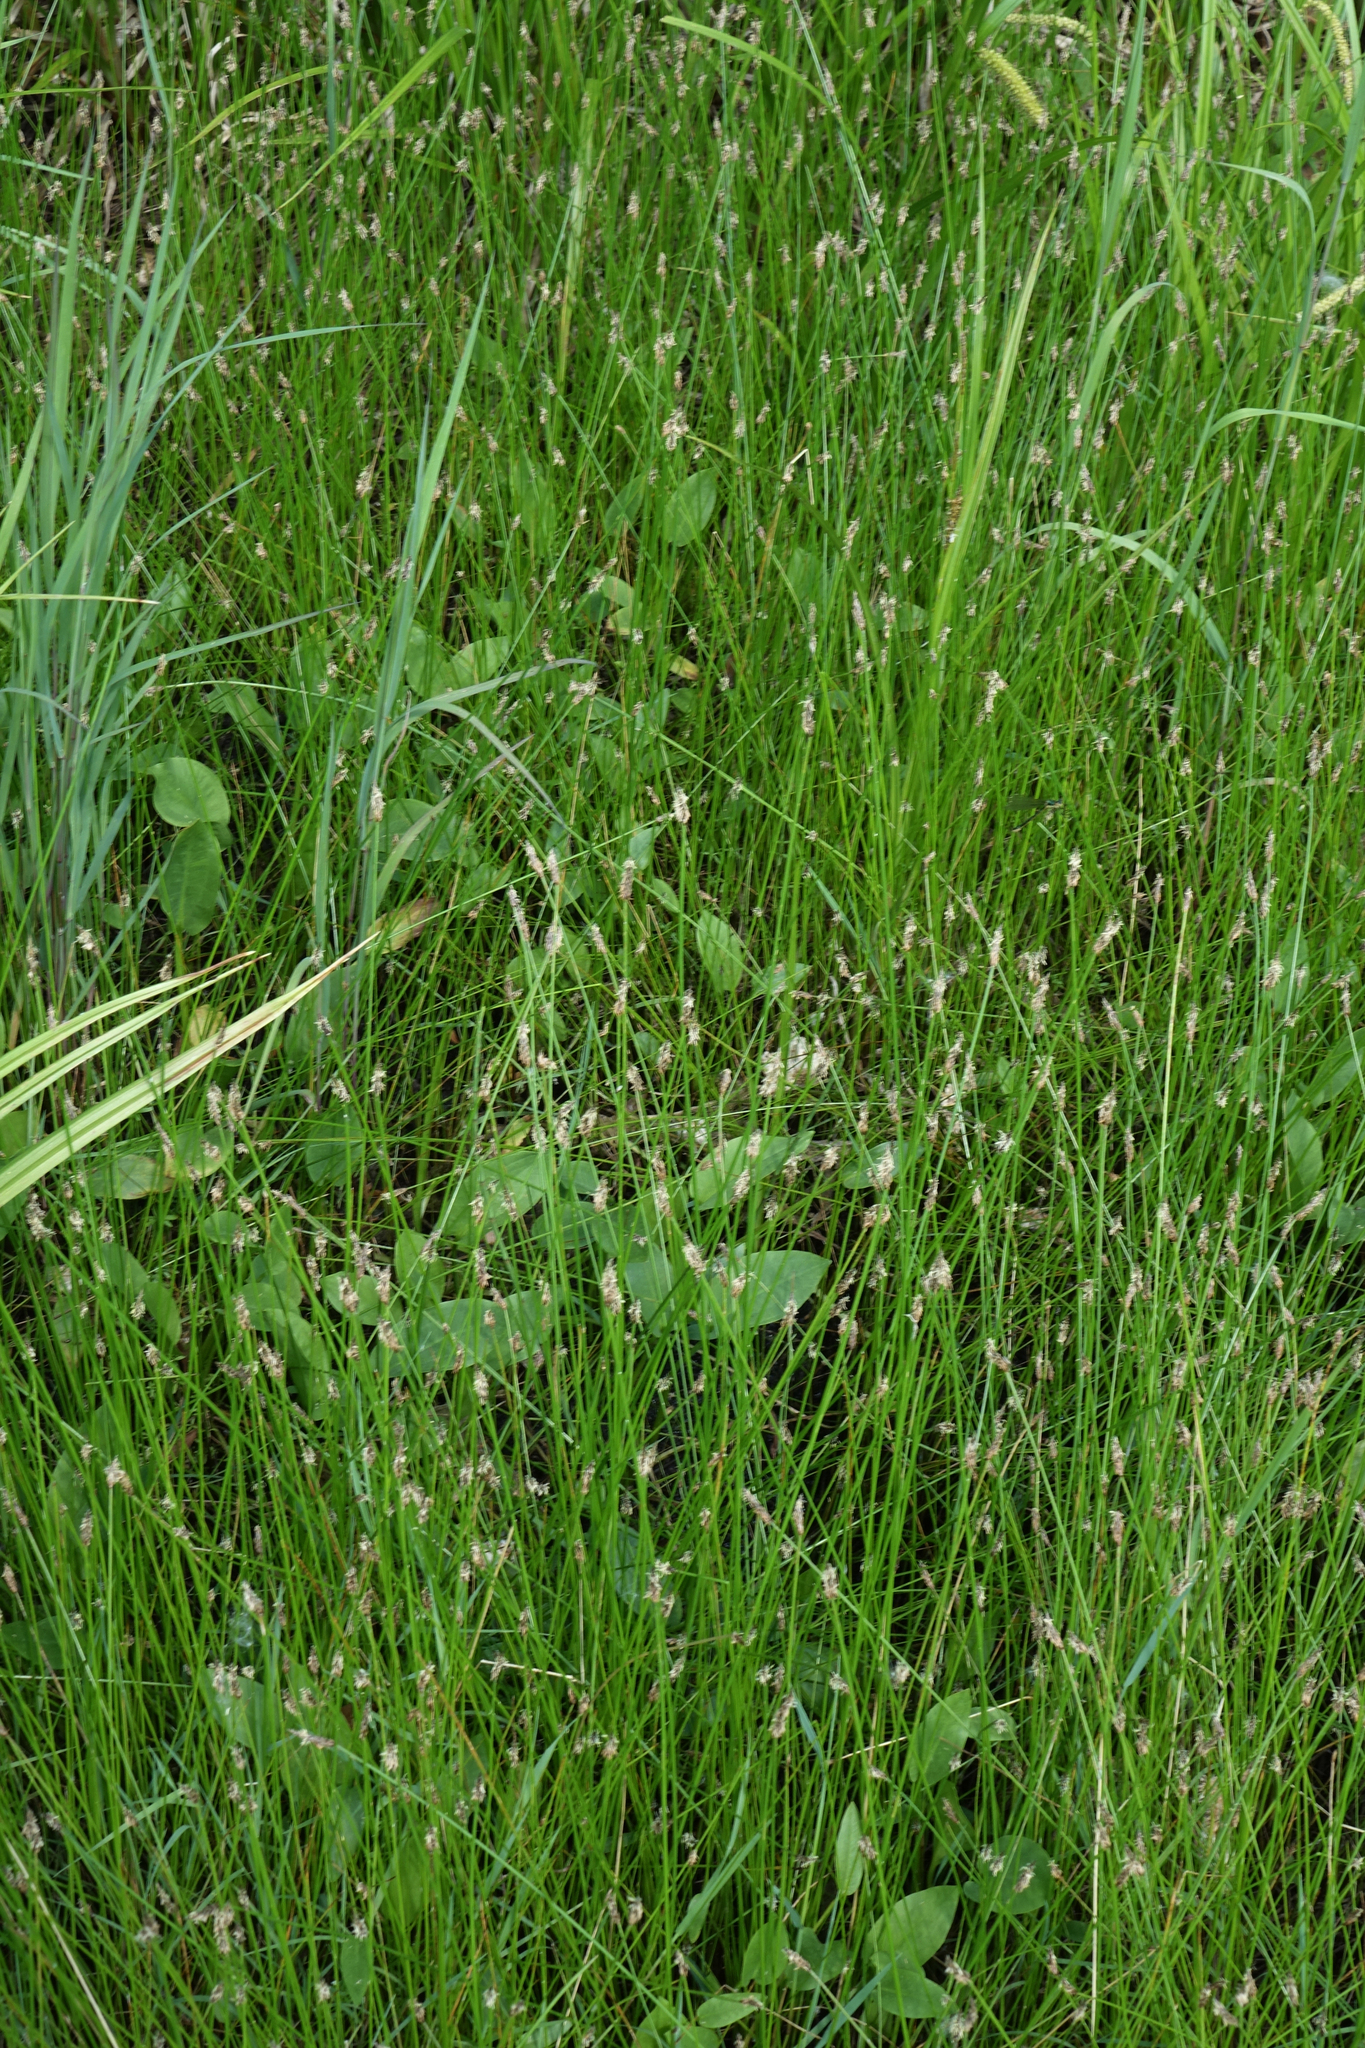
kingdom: Plantae
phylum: Tracheophyta
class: Liliopsida
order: Poales
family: Cyperaceae
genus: Eleocharis
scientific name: Eleocharis palustris
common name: Common spike-rush
